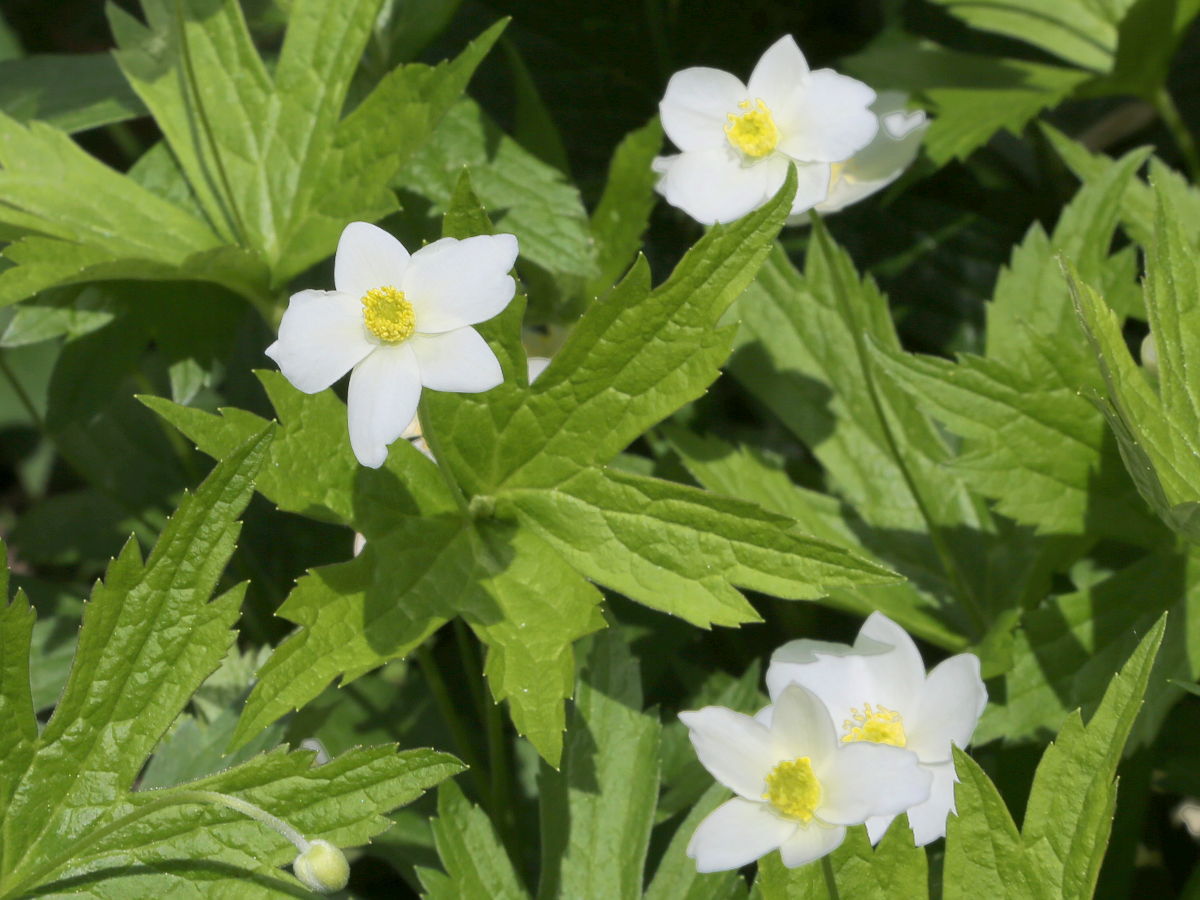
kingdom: Plantae
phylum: Tracheophyta
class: Magnoliopsida
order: Ranunculales
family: Ranunculaceae
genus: Anemonastrum
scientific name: Anemonastrum canadense
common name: Canada anemone
